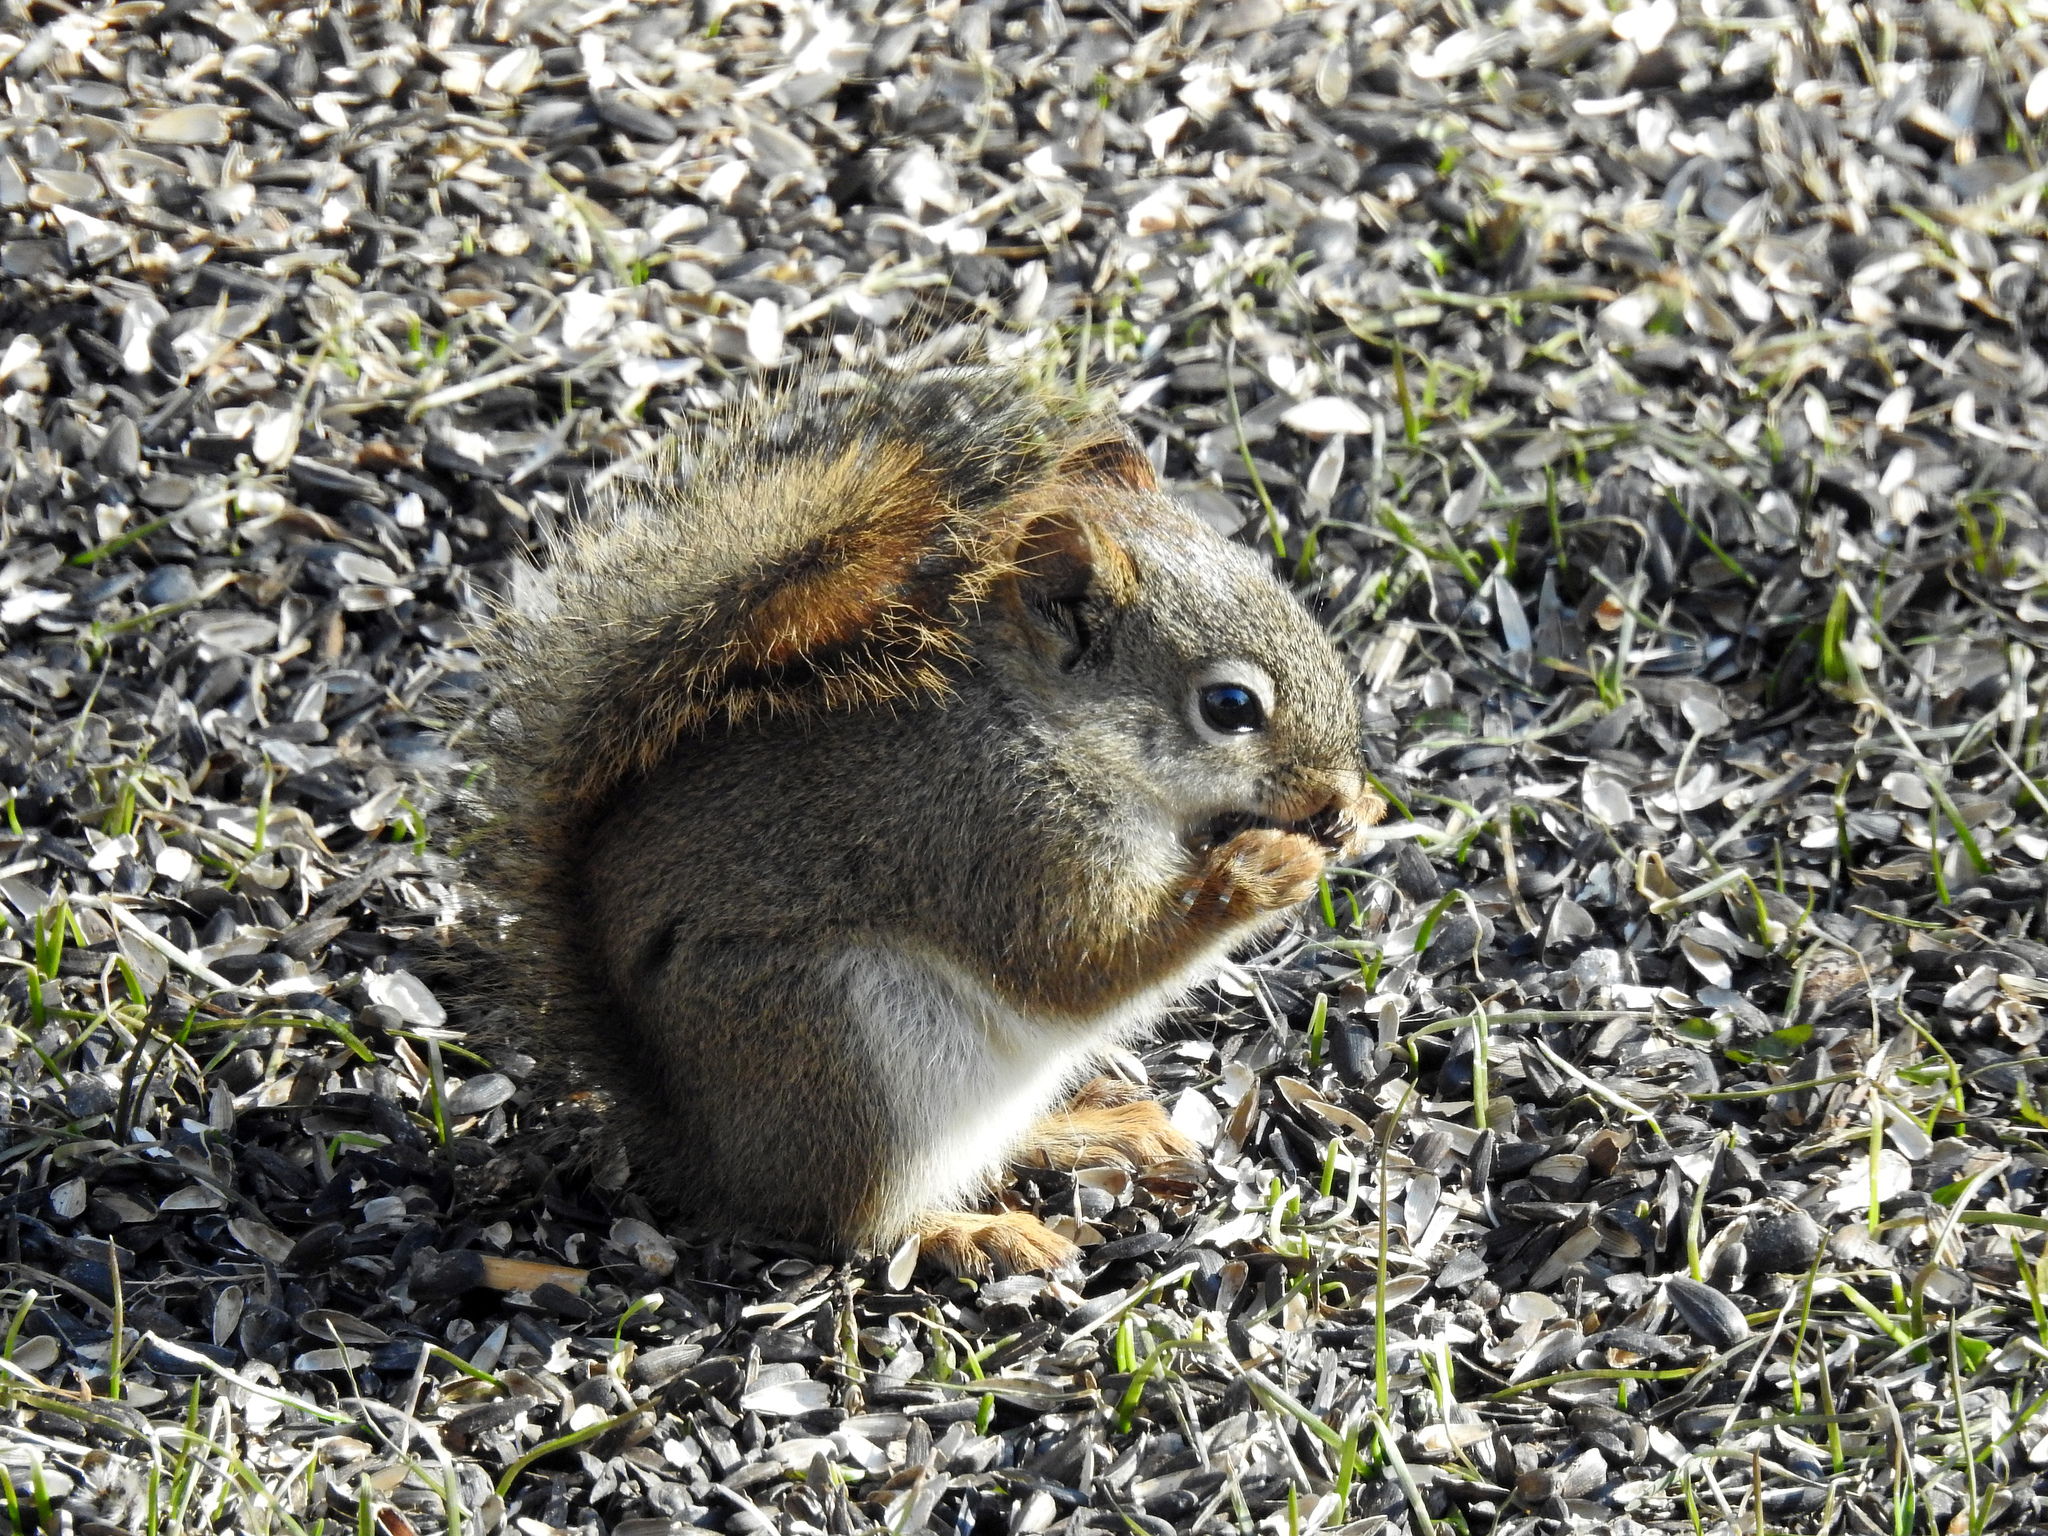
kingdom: Animalia
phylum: Chordata
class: Mammalia
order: Rodentia
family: Sciuridae
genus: Tamiasciurus
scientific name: Tamiasciurus hudsonicus
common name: Red squirrel
